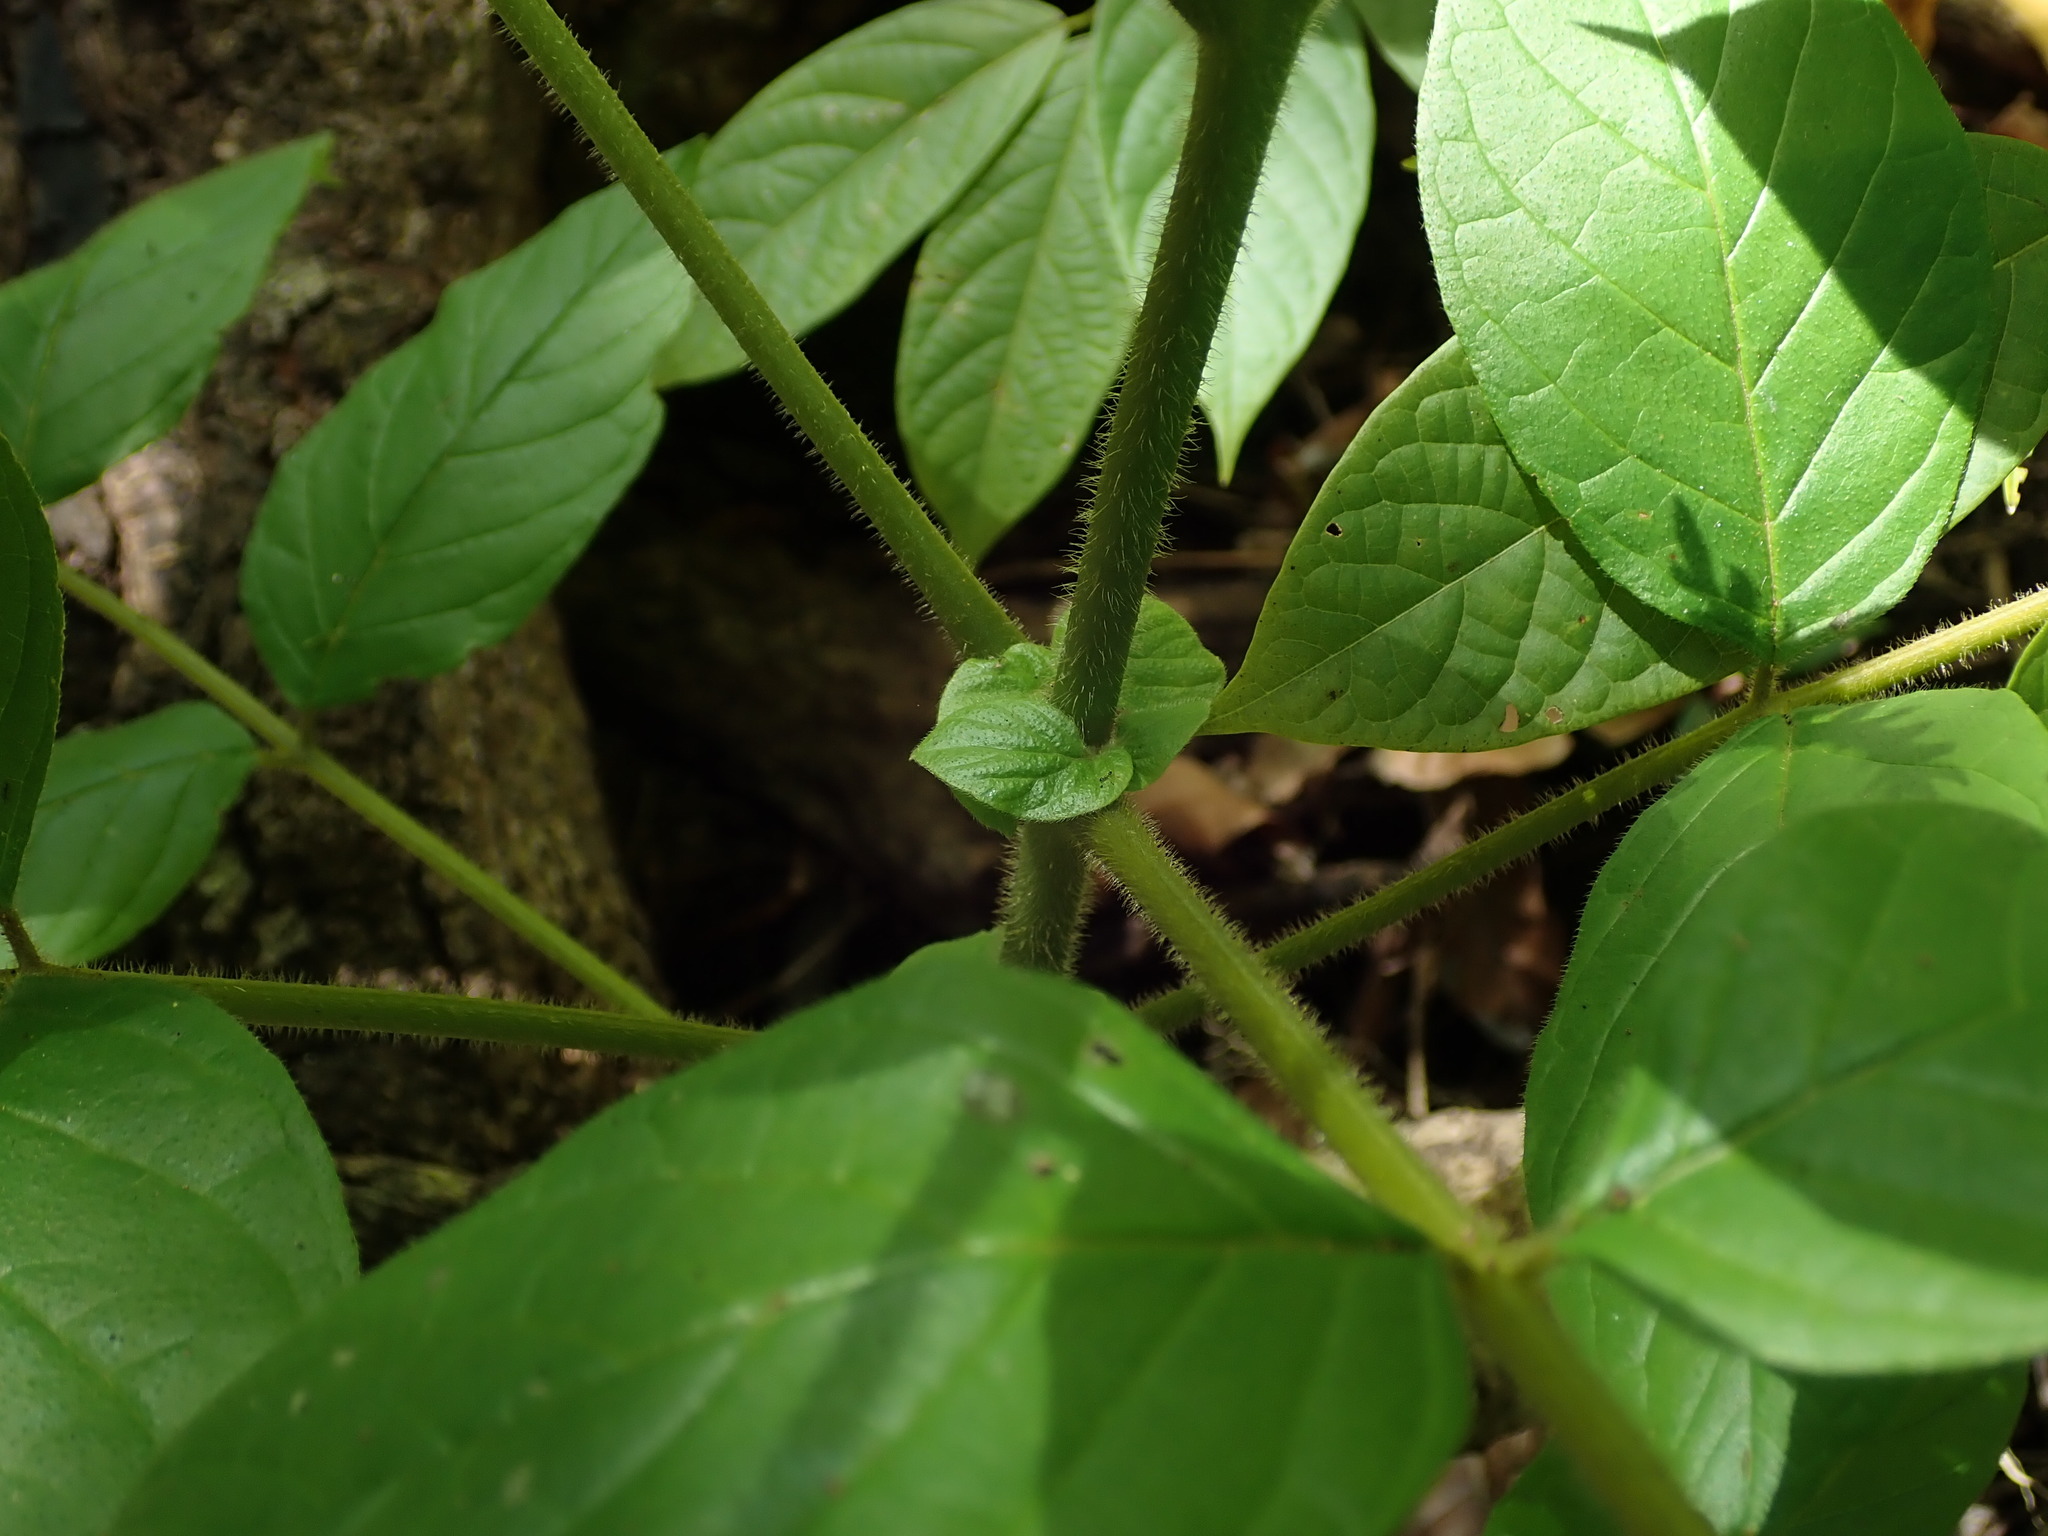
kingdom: Plantae
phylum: Tracheophyta
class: Magnoliopsida
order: Lamiales
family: Bignoniaceae
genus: Spathodea
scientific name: Spathodea campanulata
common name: African tuliptree
